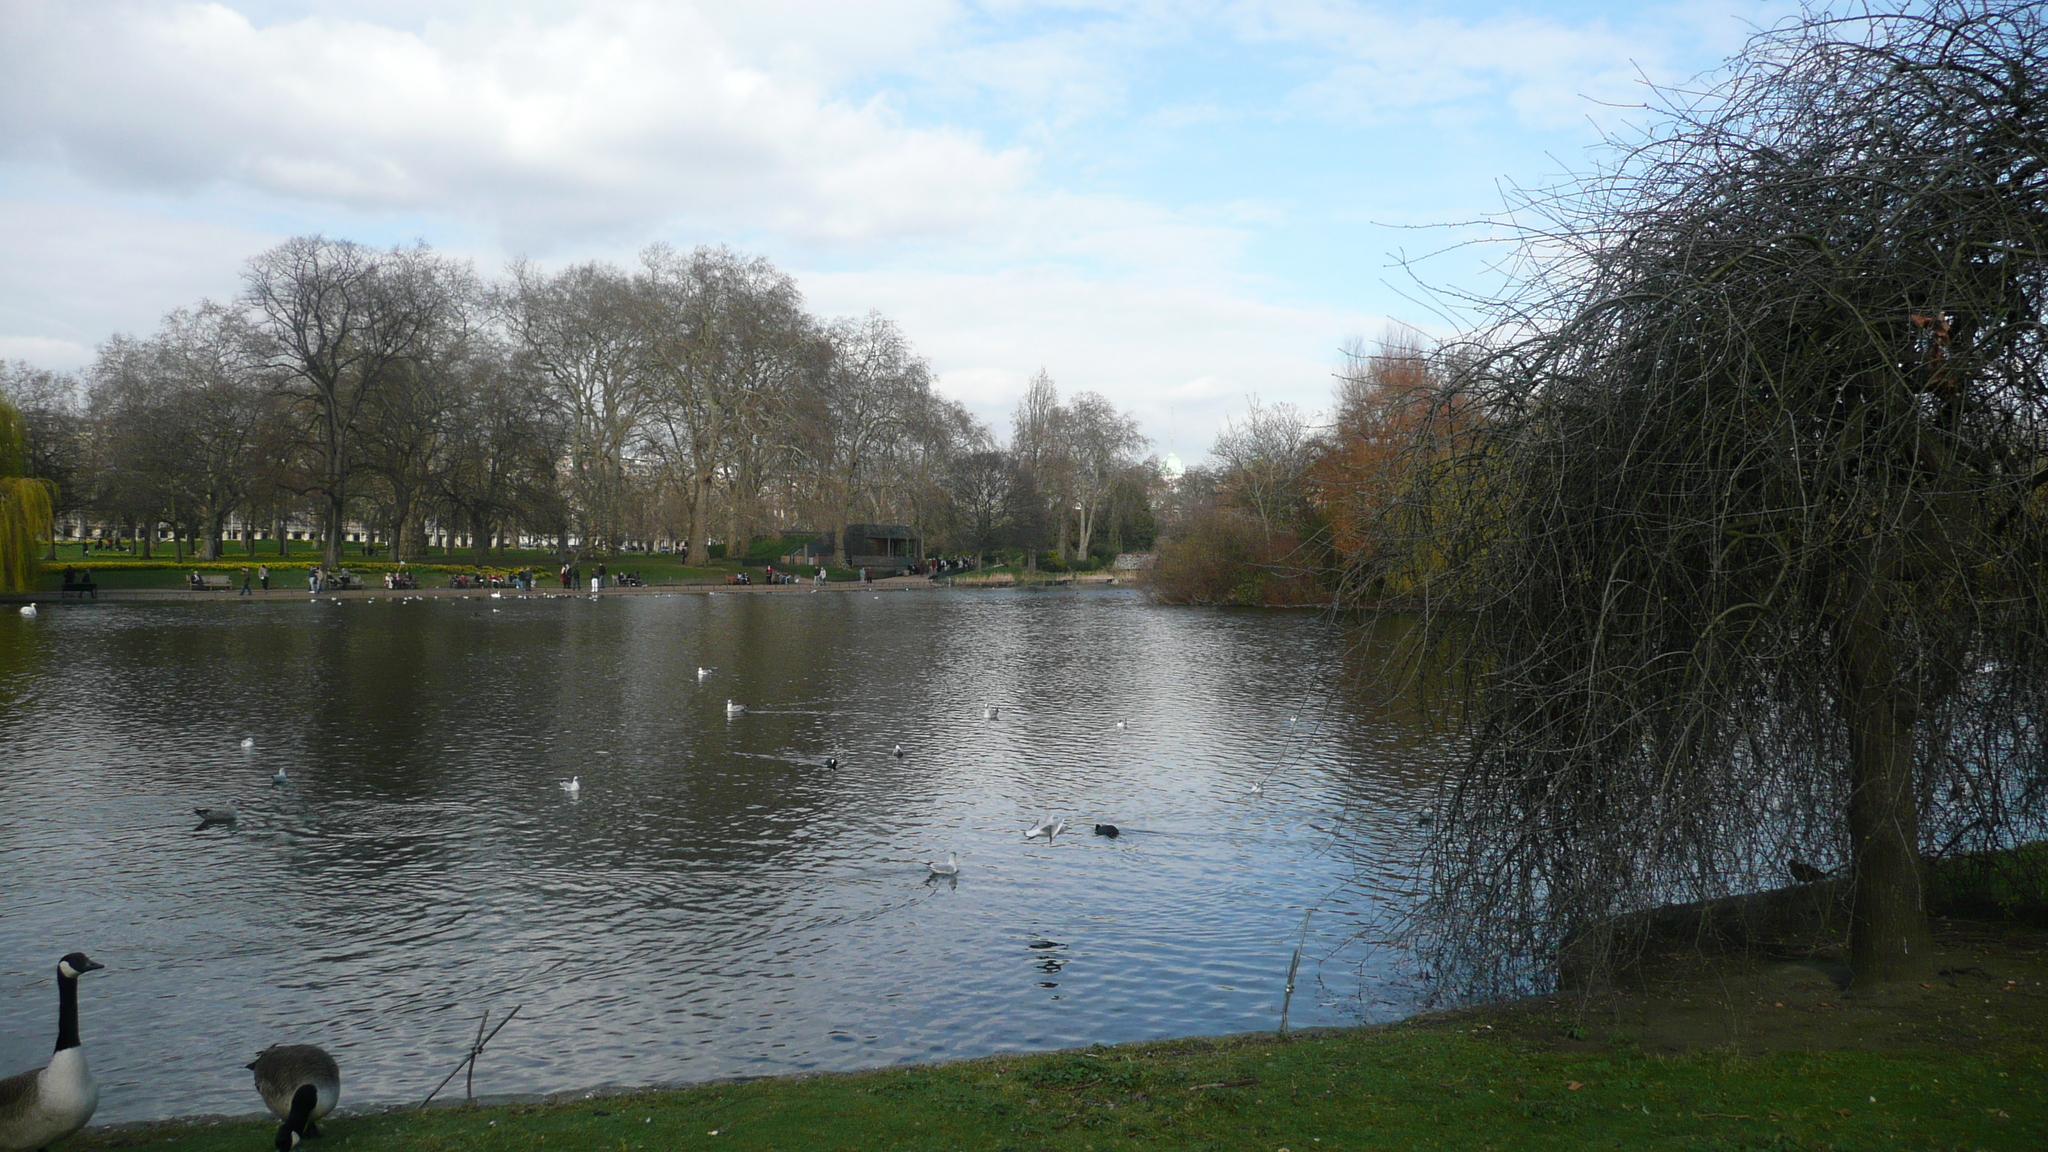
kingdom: Animalia
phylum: Chordata
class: Aves
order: Anseriformes
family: Anatidae
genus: Branta
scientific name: Branta canadensis
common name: Canada goose
